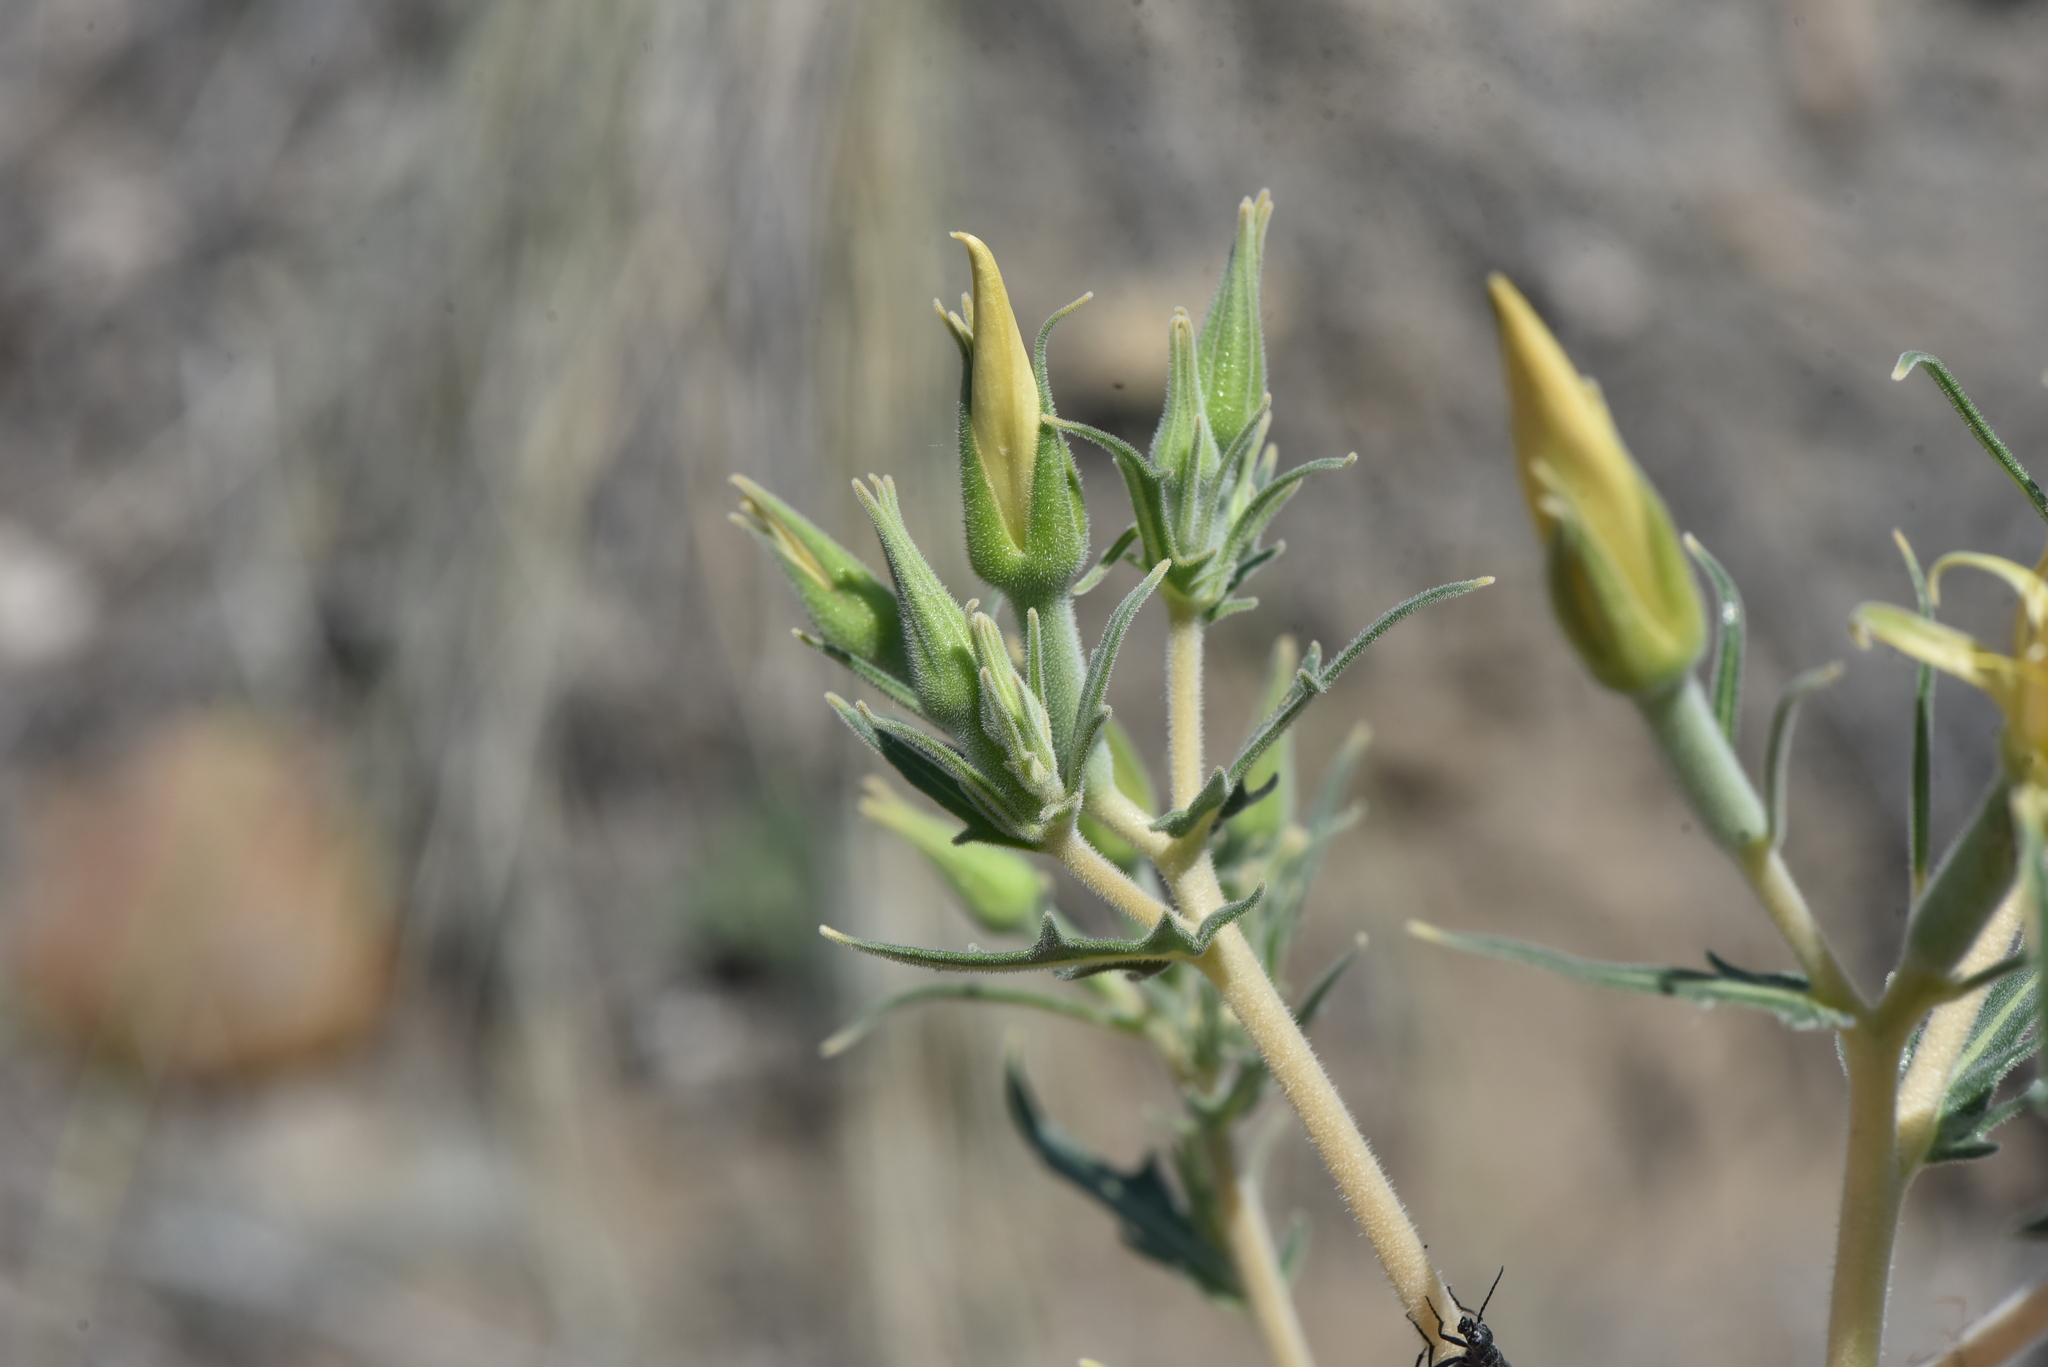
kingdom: Plantae
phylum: Tracheophyta
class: Magnoliopsida
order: Cornales
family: Loasaceae
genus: Mentzelia
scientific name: Mentzelia laevicaulis
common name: Smooth-stem blazingstar
